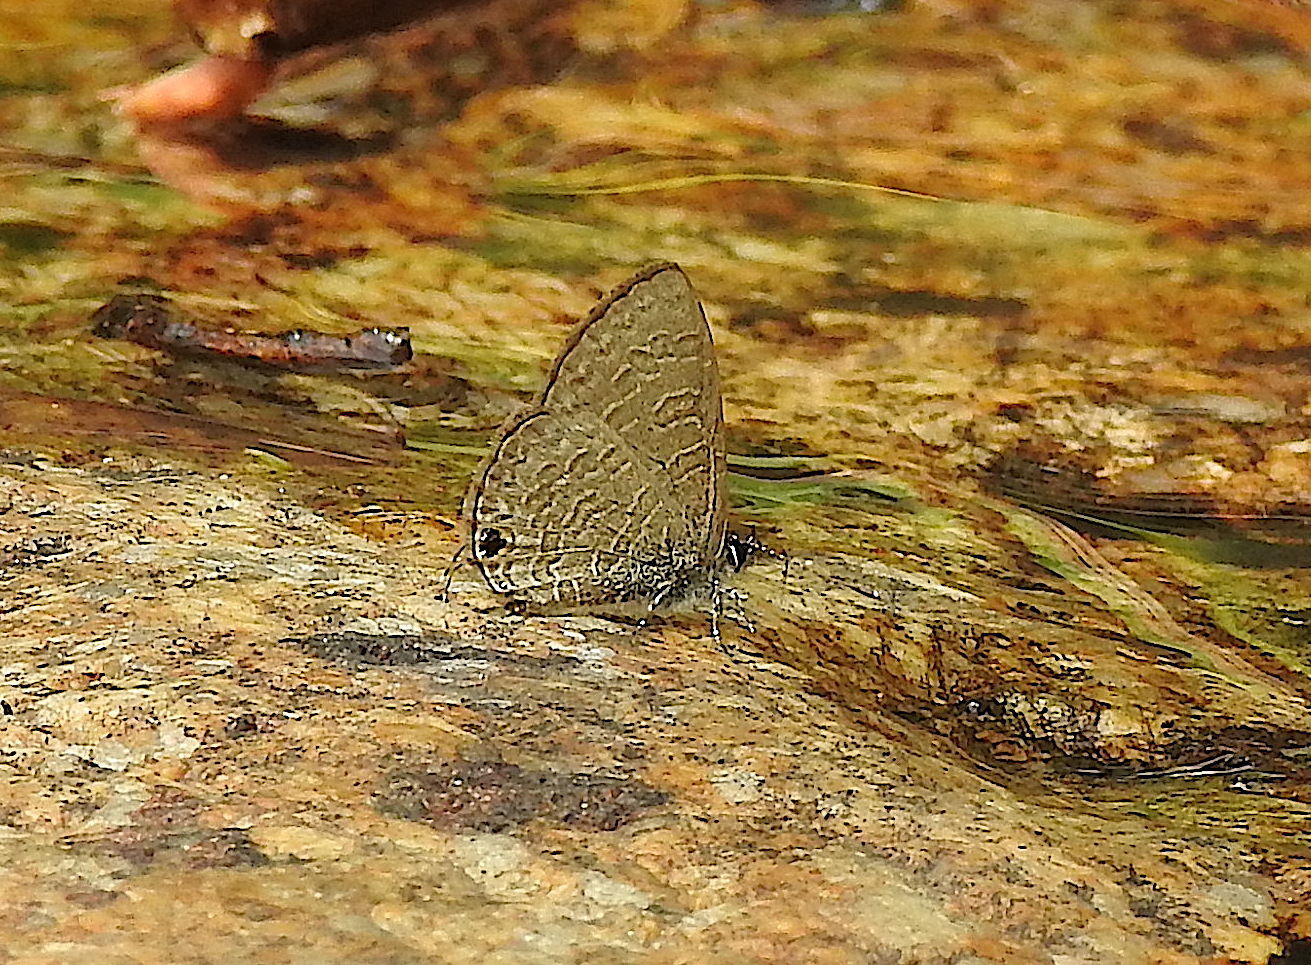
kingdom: Animalia
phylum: Arthropoda
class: Insecta
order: Lepidoptera
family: Lycaenidae
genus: Prosotas
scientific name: Prosotas nora
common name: Common line blue
